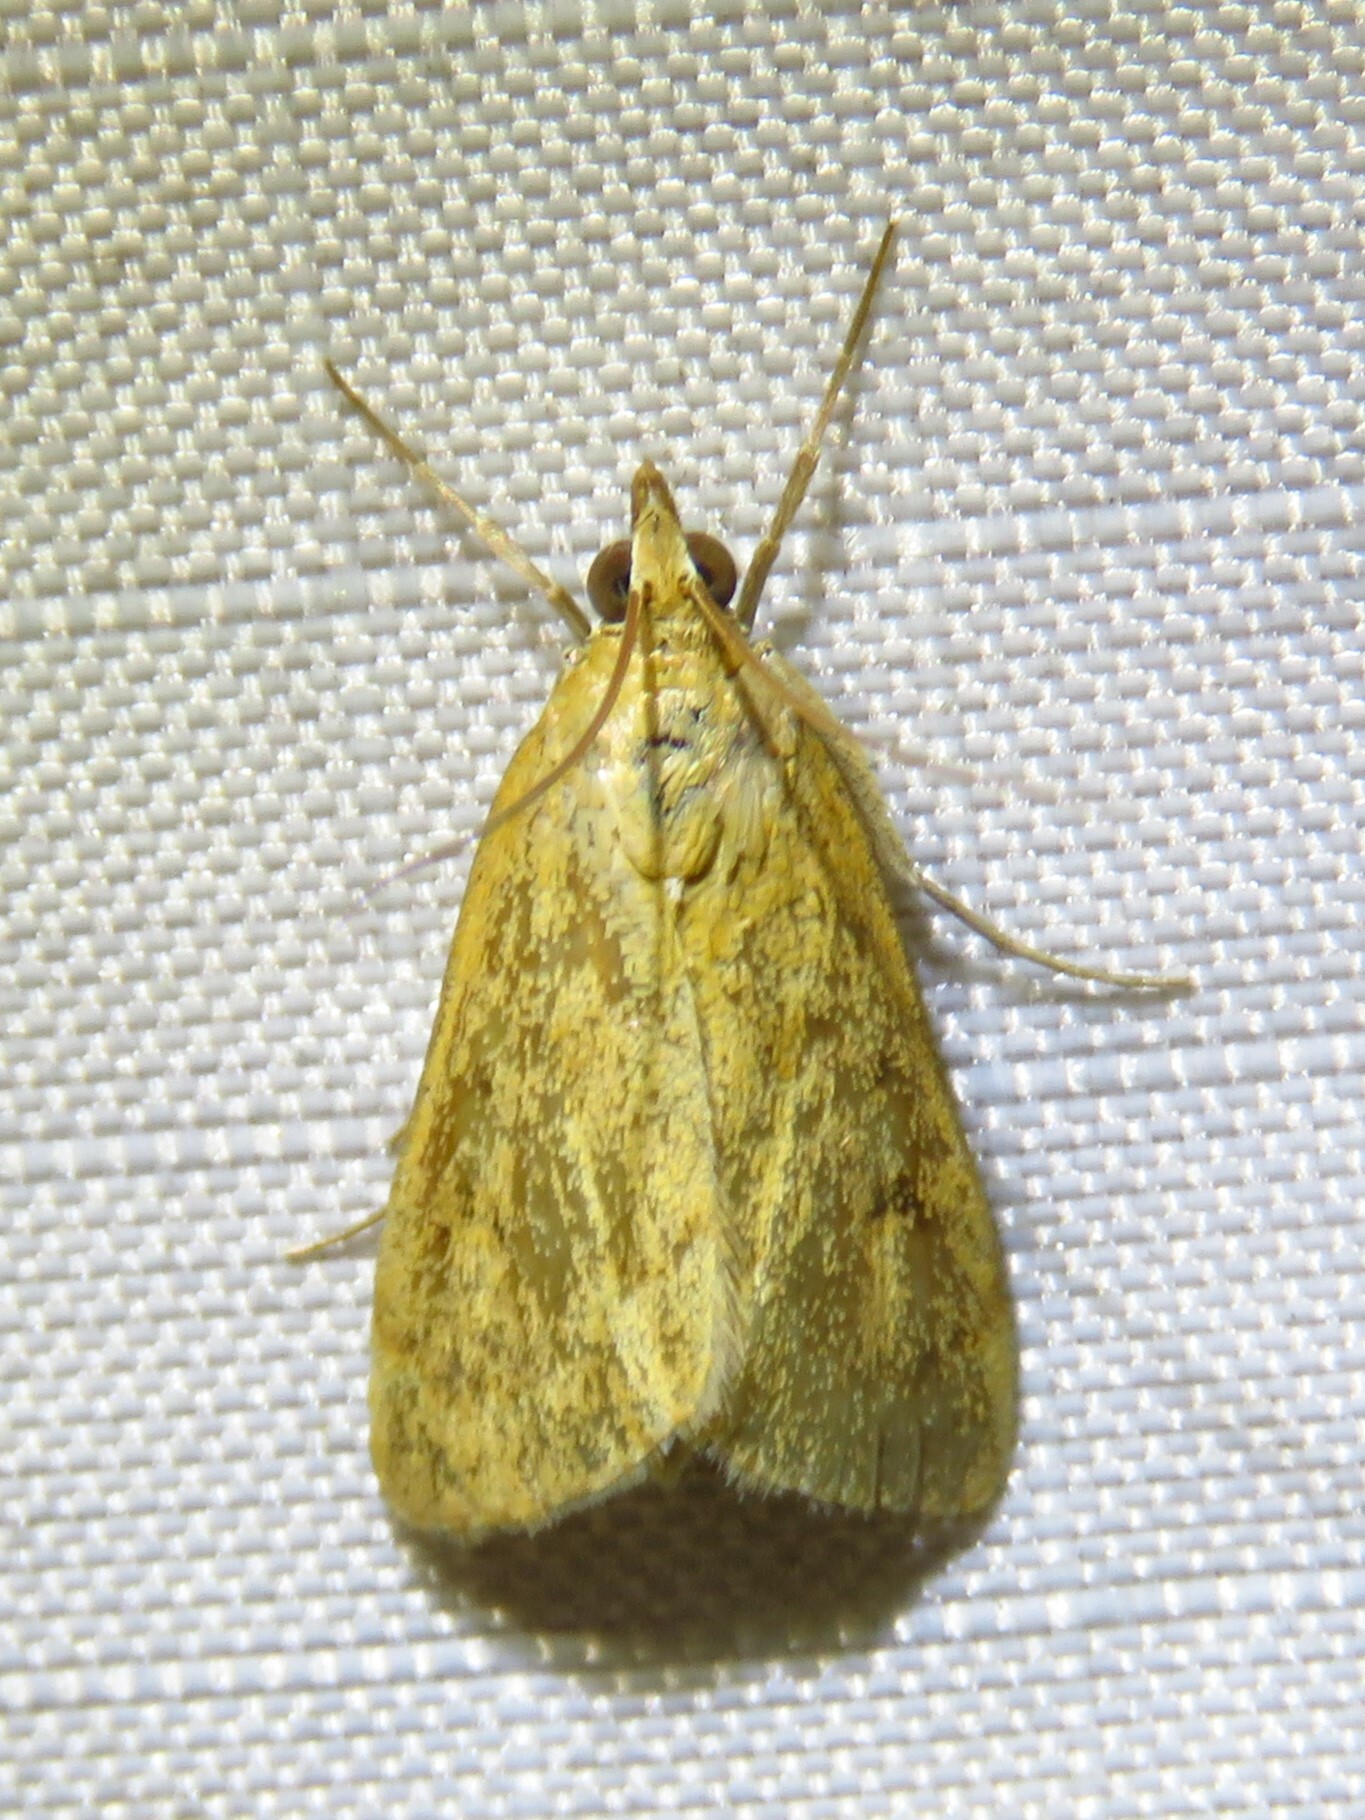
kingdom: Animalia
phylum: Arthropoda
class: Insecta
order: Lepidoptera
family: Crambidae
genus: Achyra
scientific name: Achyra rantalis
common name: Garden webworm
